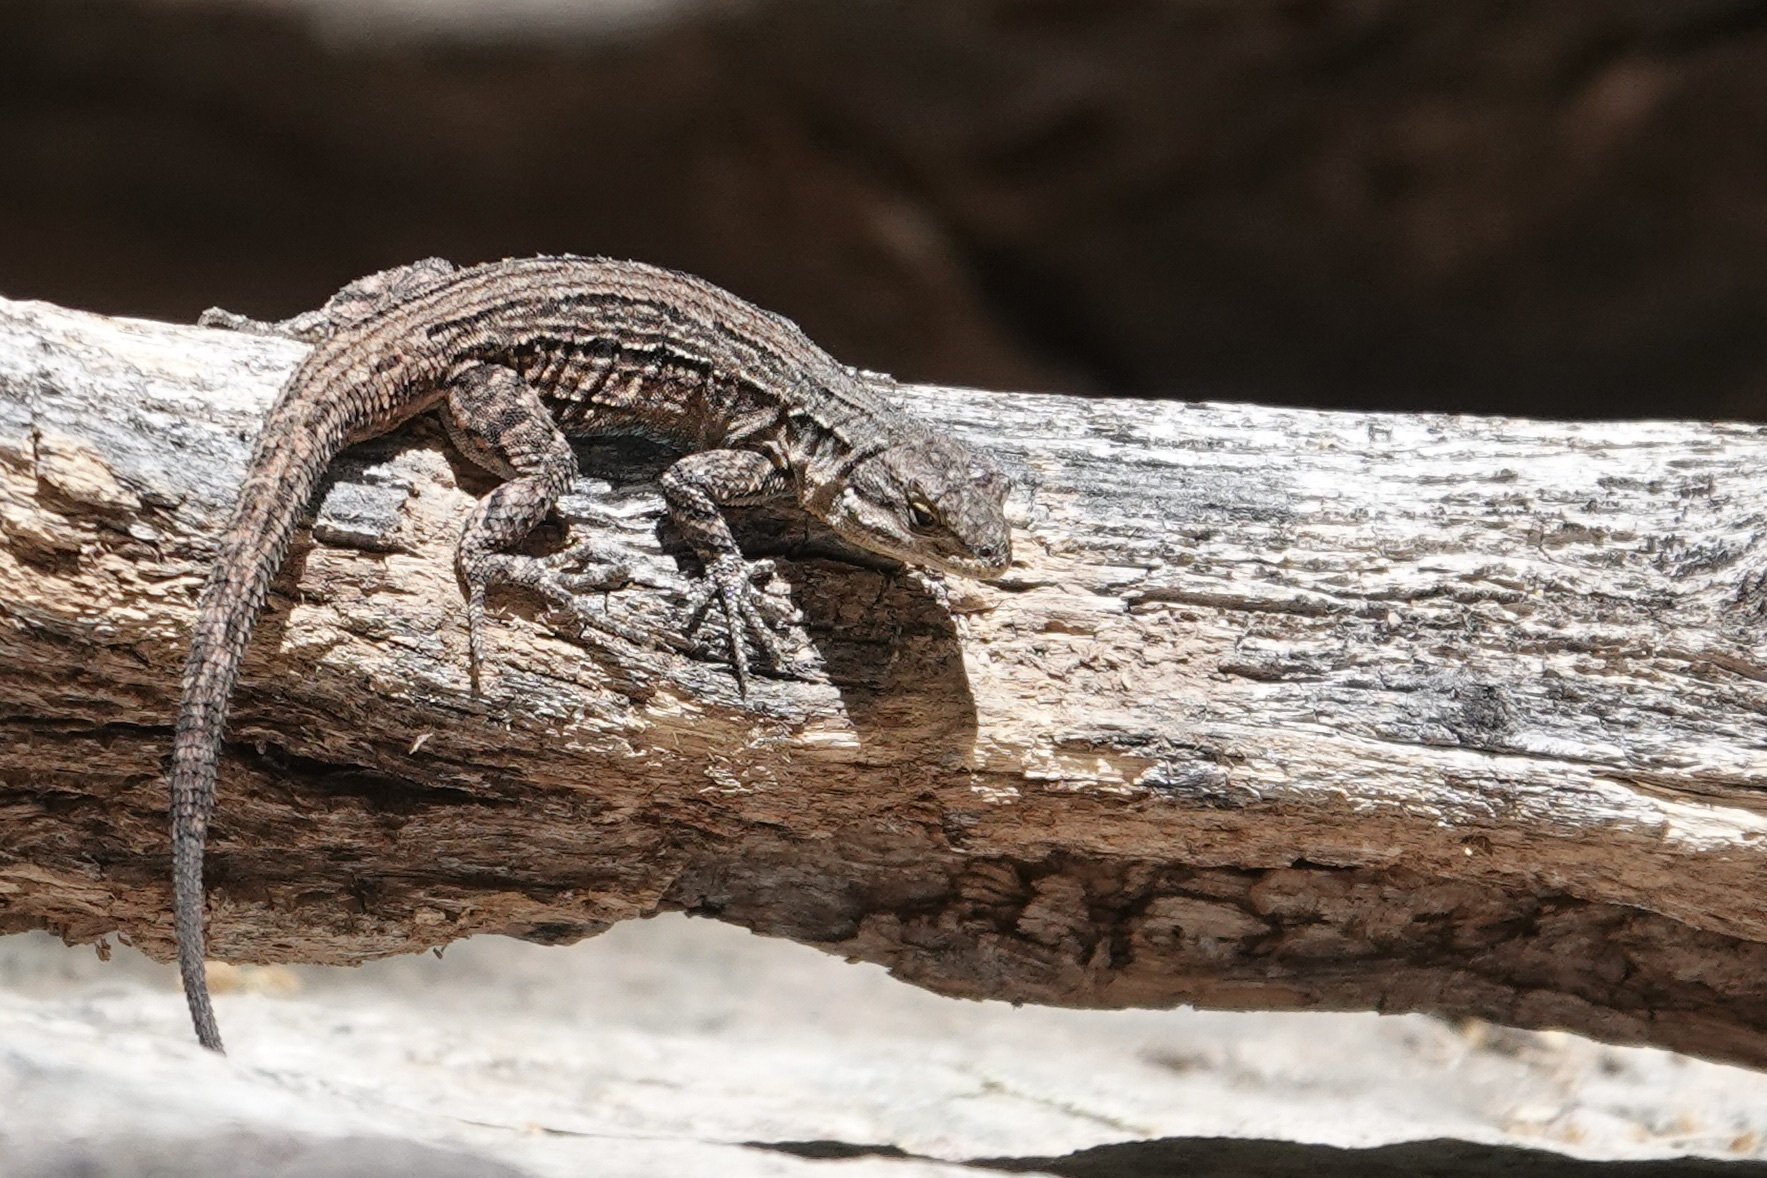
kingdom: Animalia
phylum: Chordata
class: Squamata
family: Phrynosomatidae
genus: Urosaurus
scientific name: Urosaurus ornatus
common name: Ornate tree lizard
